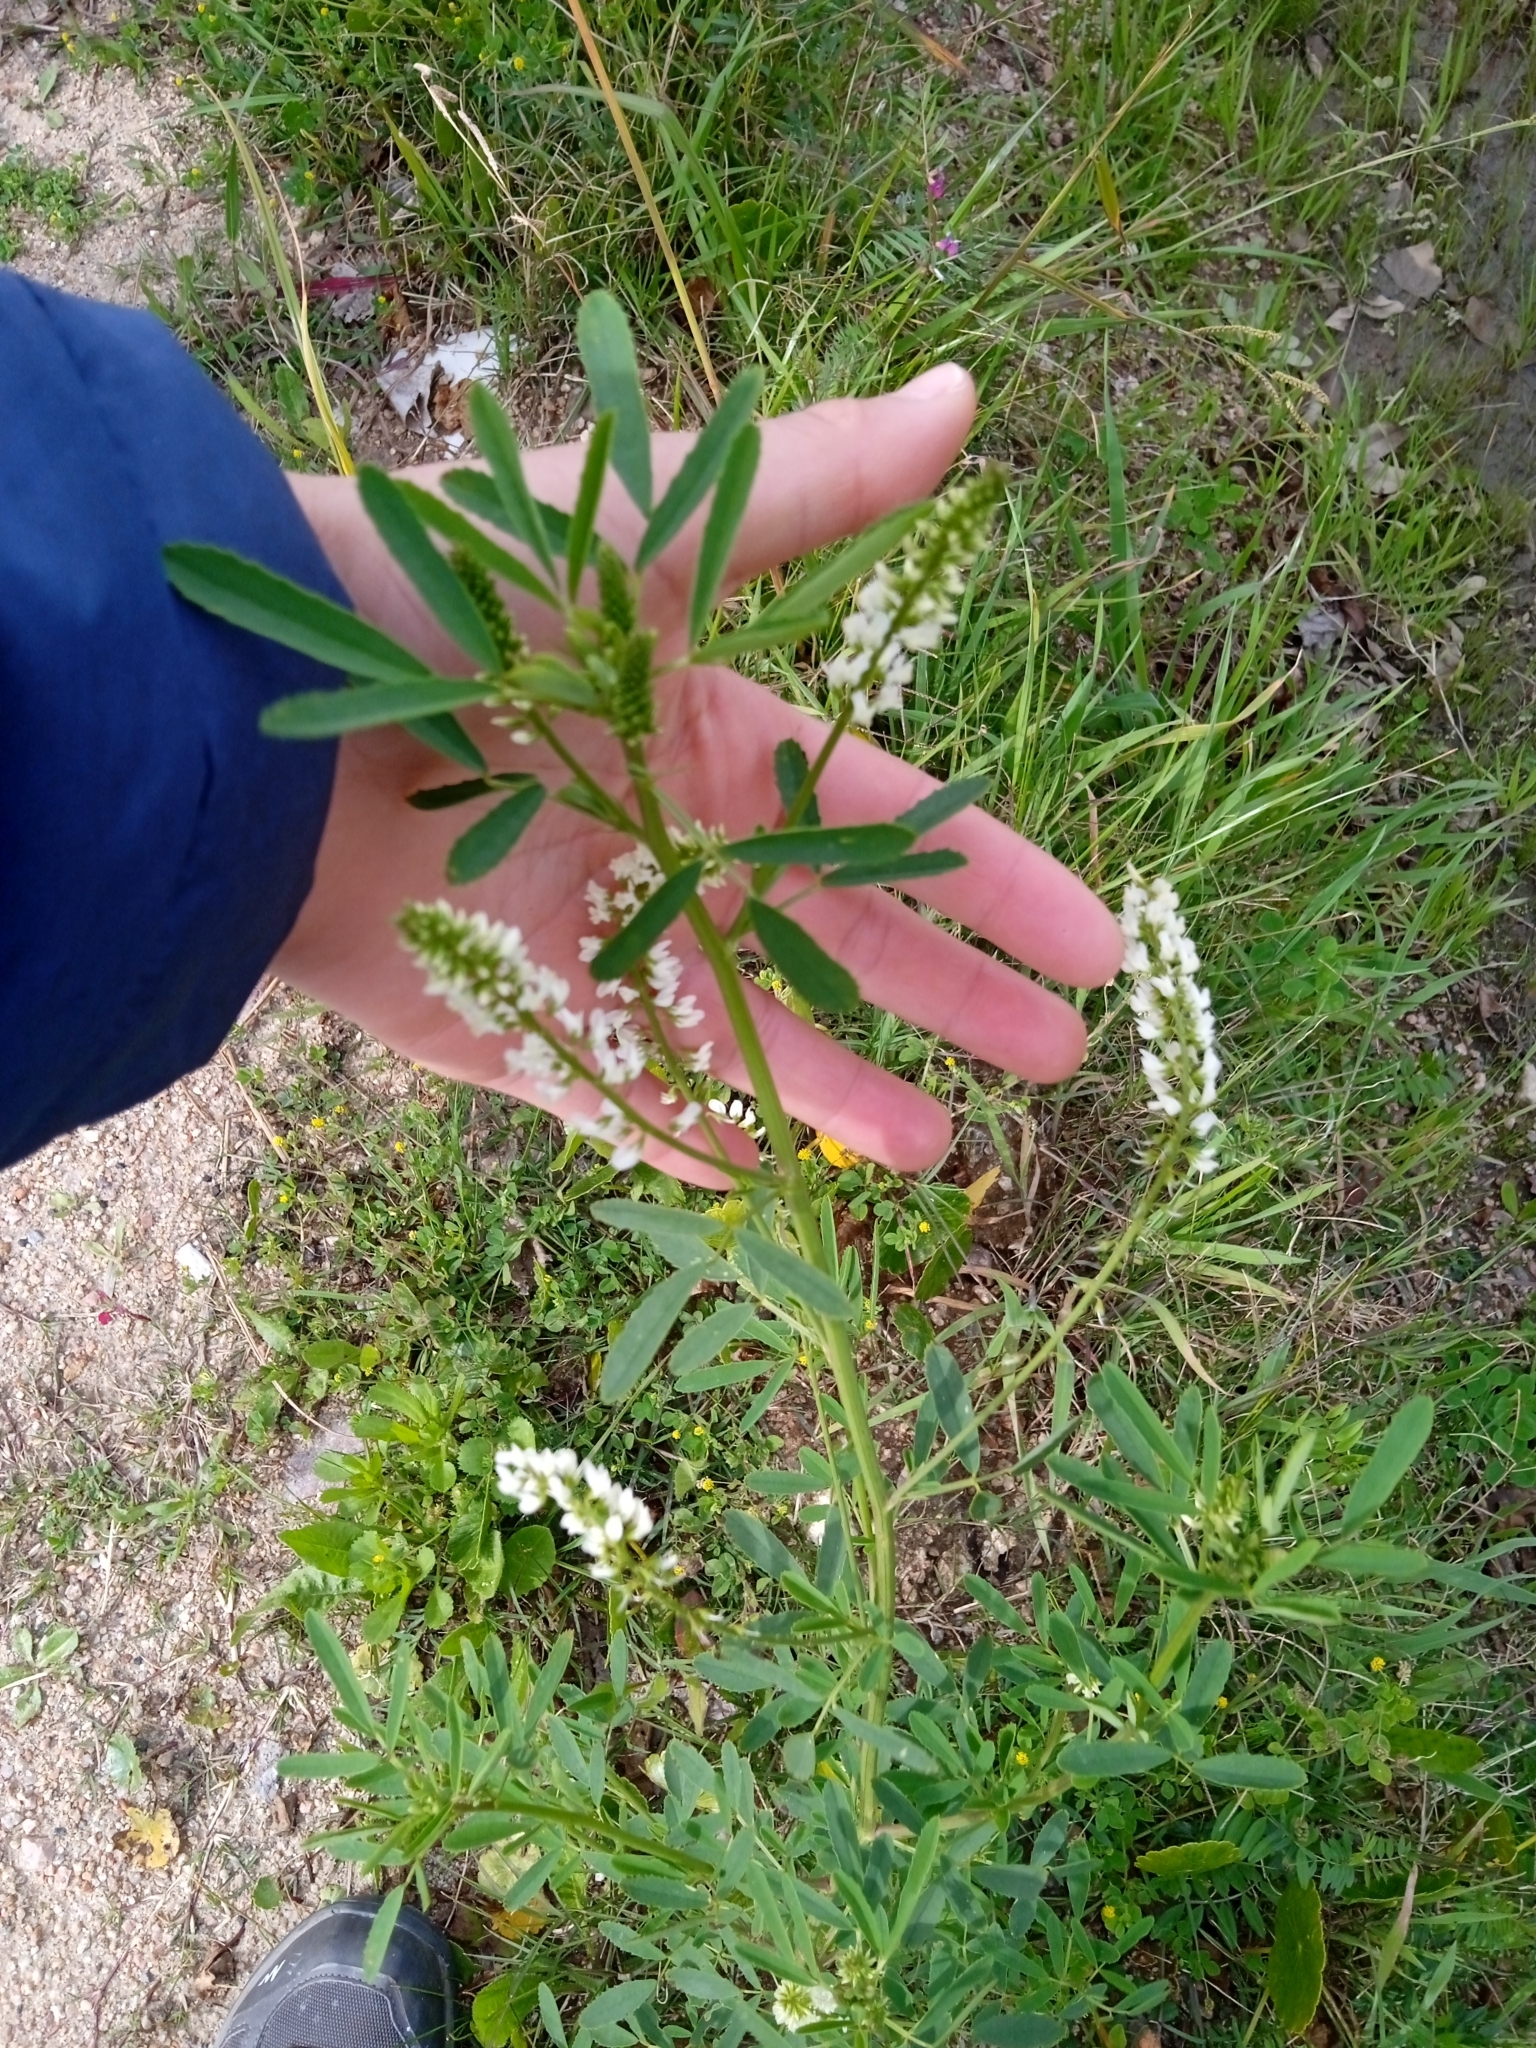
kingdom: Plantae
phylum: Tracheophyta
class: Magnoliopsida
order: Fabales
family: Fabaceae
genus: Melilotus
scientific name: Melilotus albus
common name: White melilot
